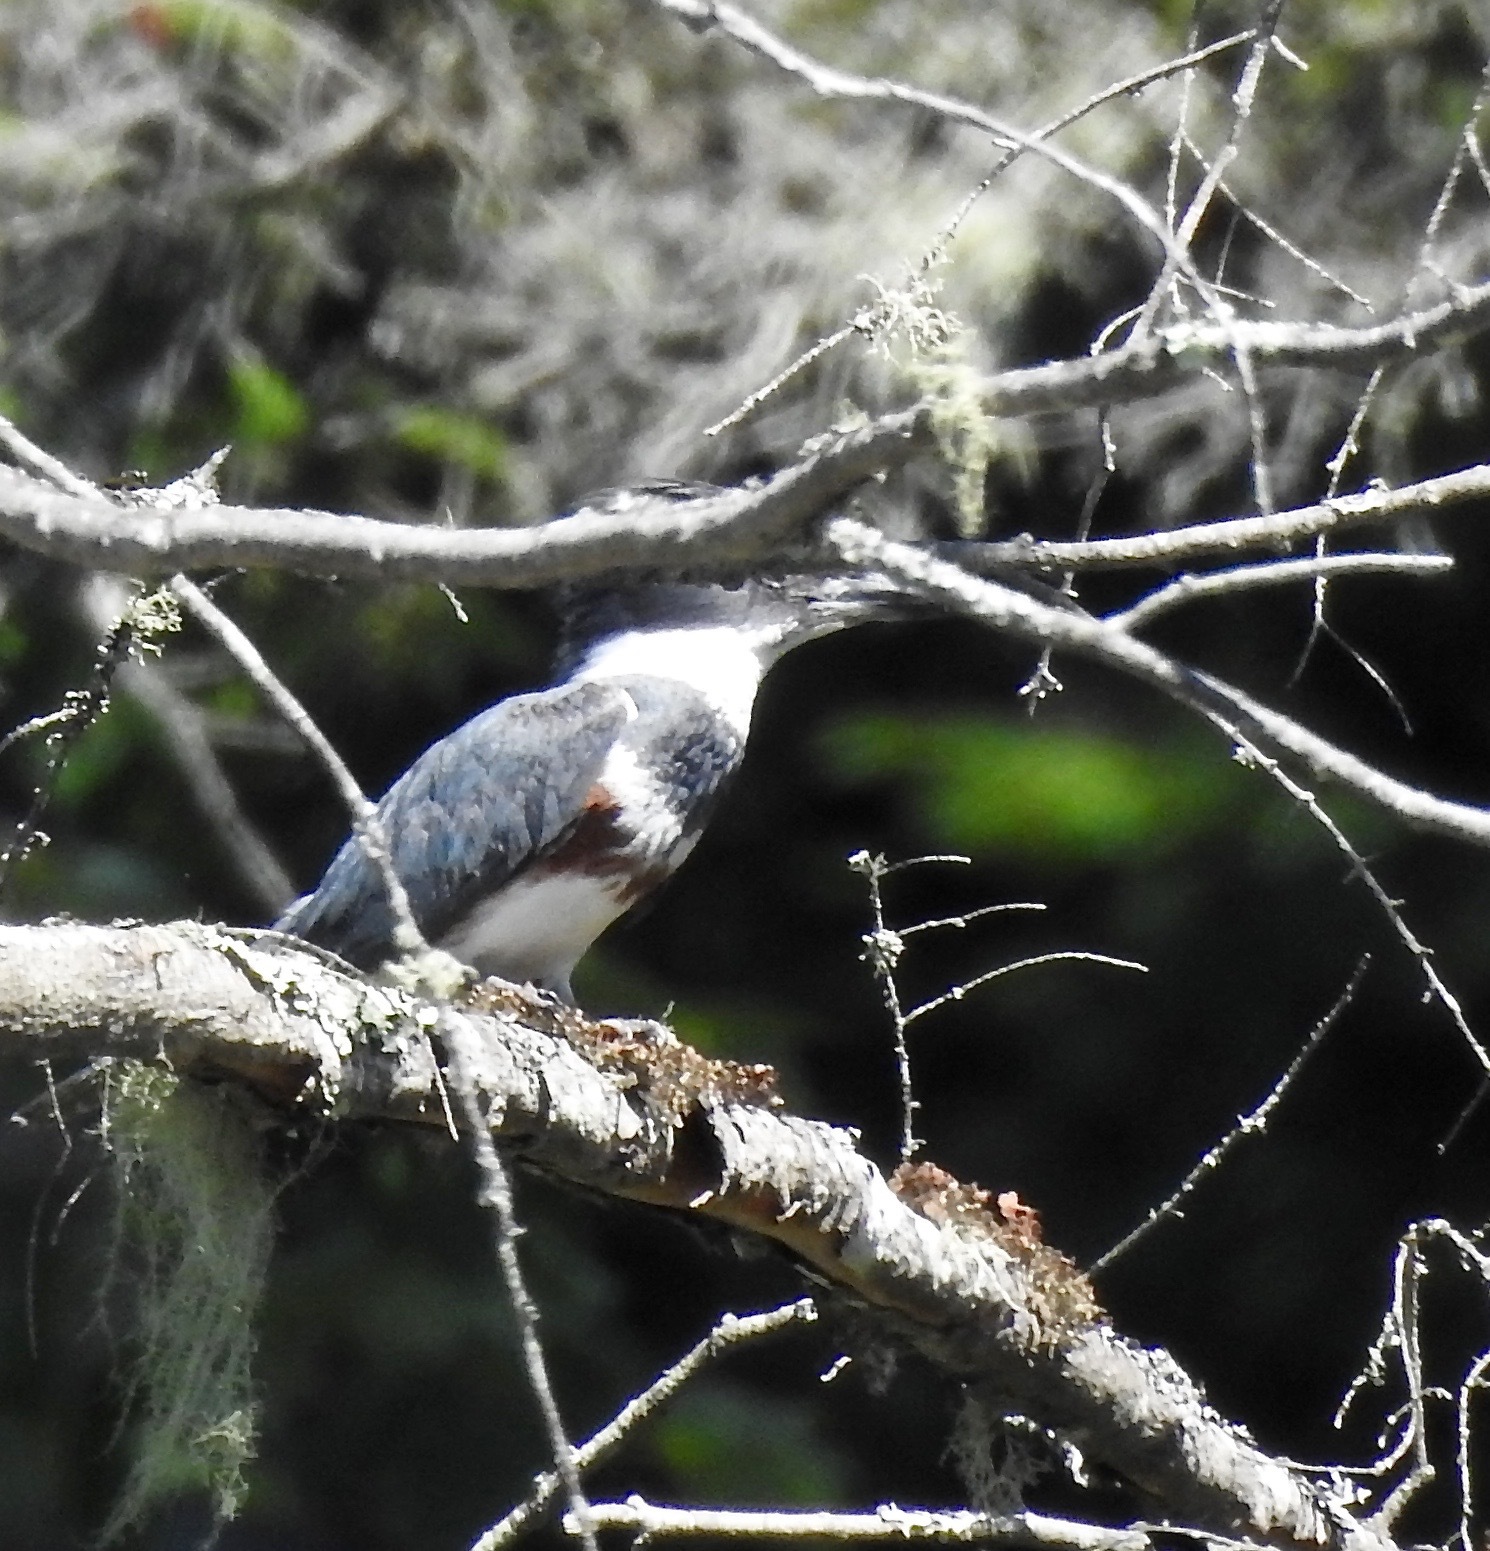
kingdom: Animalia
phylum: Chordata
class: Aves
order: Coraciiformes
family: Alcedinidae
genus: Megaceryle
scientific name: Megaceryle alcyon
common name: Belted kingfisher
